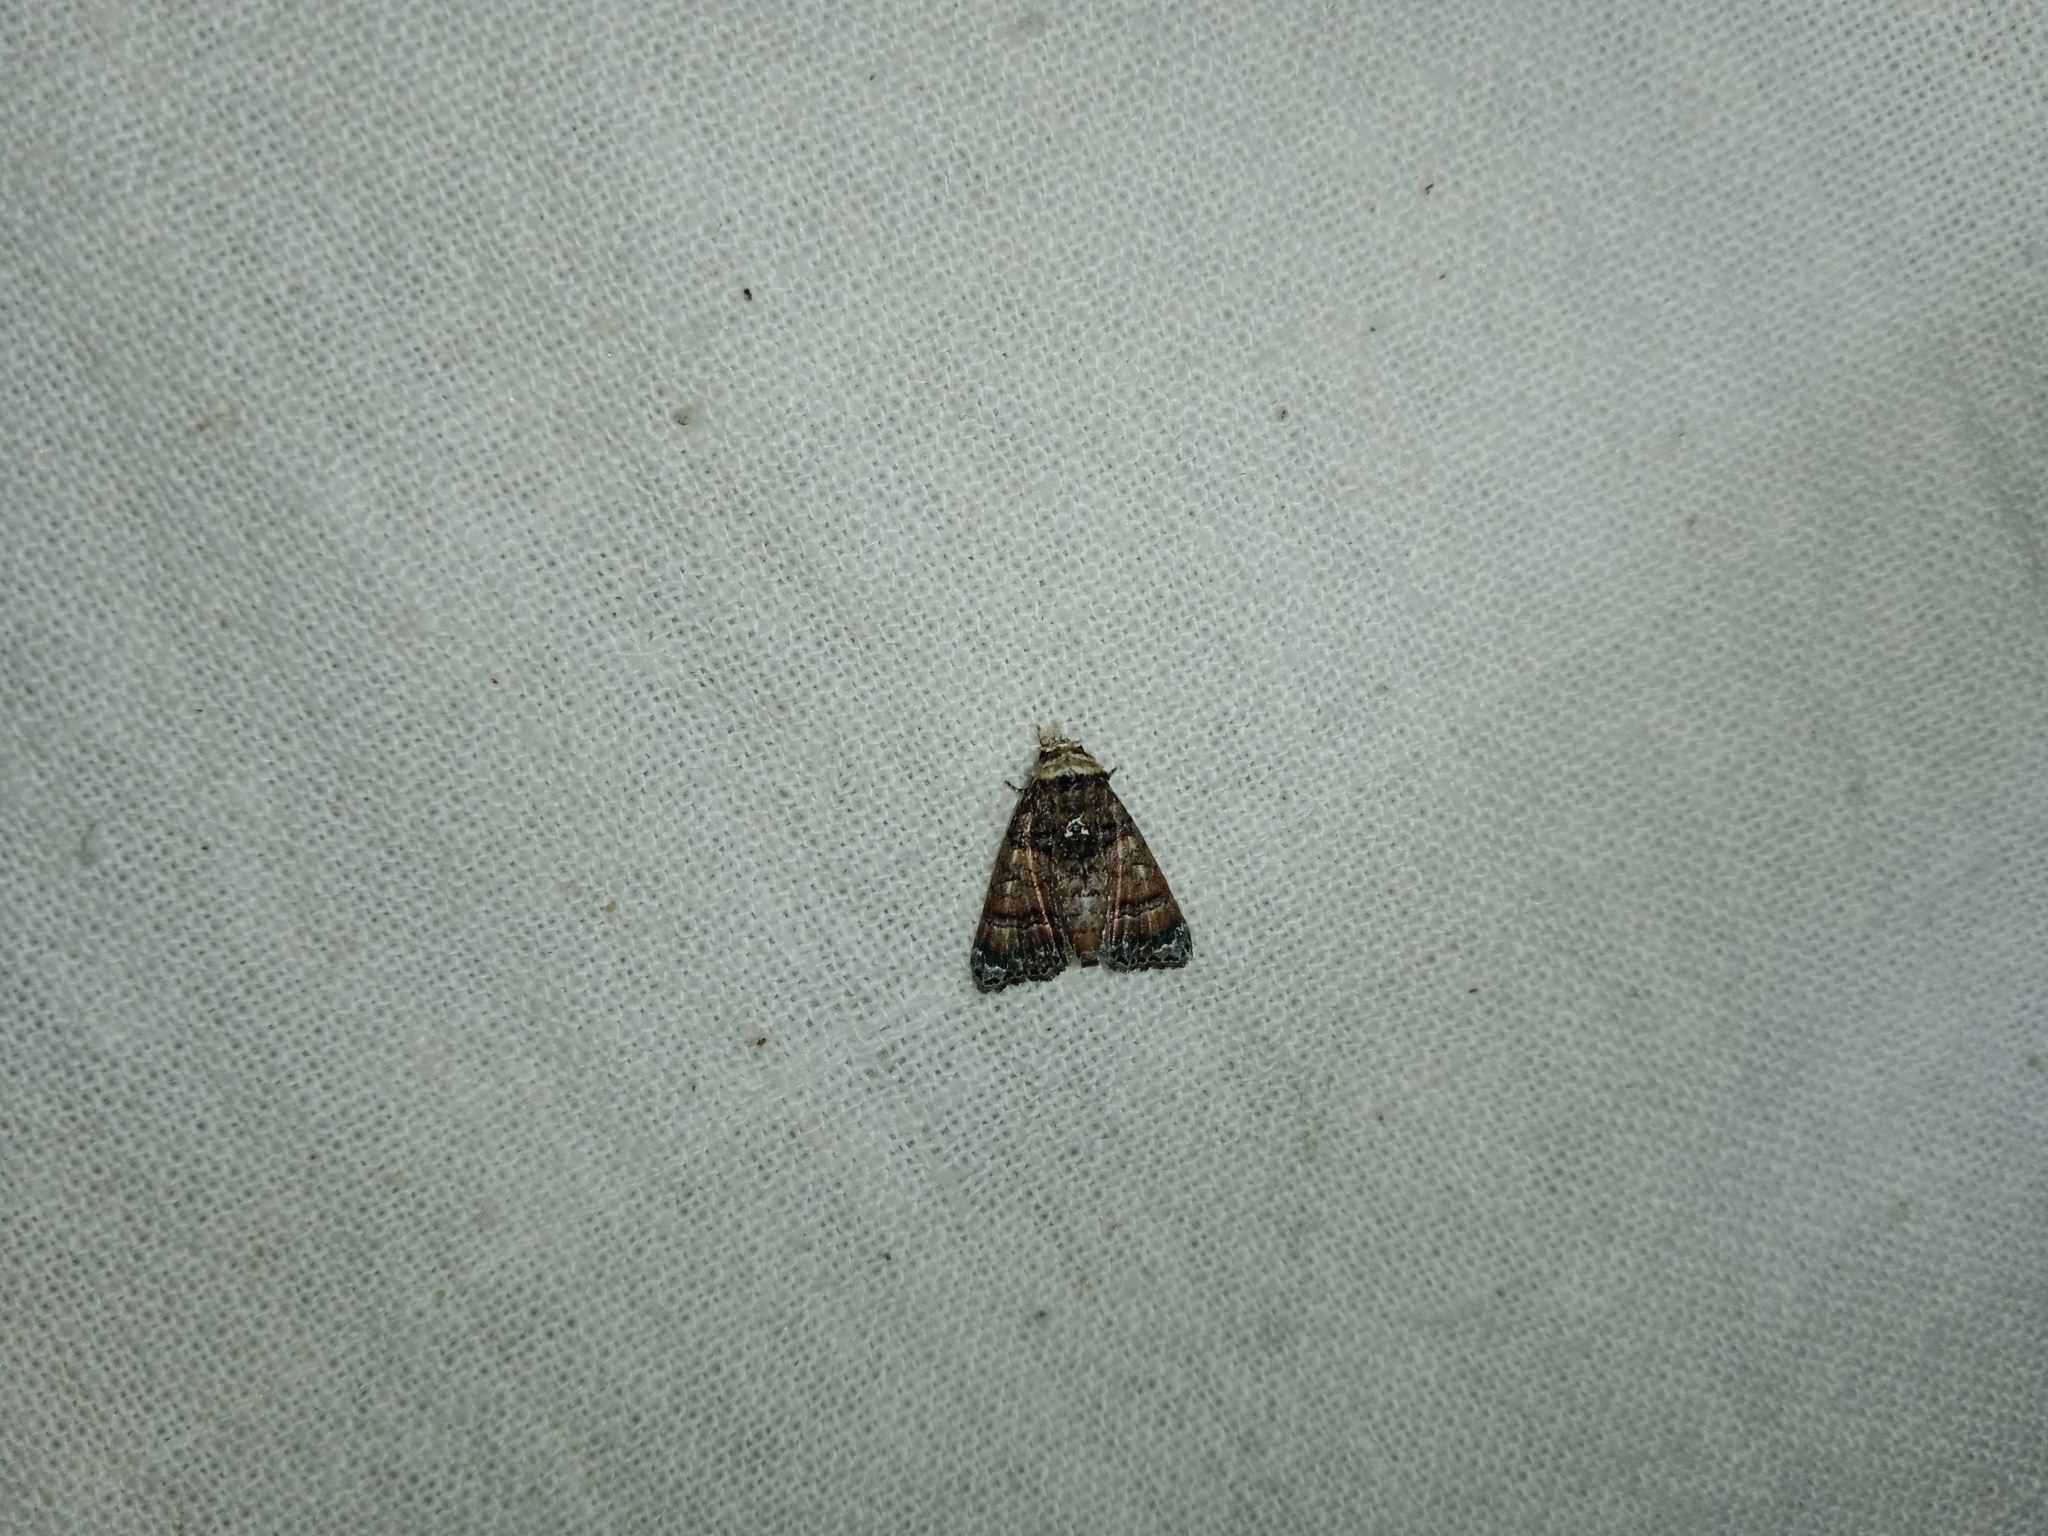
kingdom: Animalia
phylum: Arthropoda
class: Insecta
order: Lepidoptera
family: Euteliidae
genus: Chlumetia
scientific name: Chlumetia transversa
